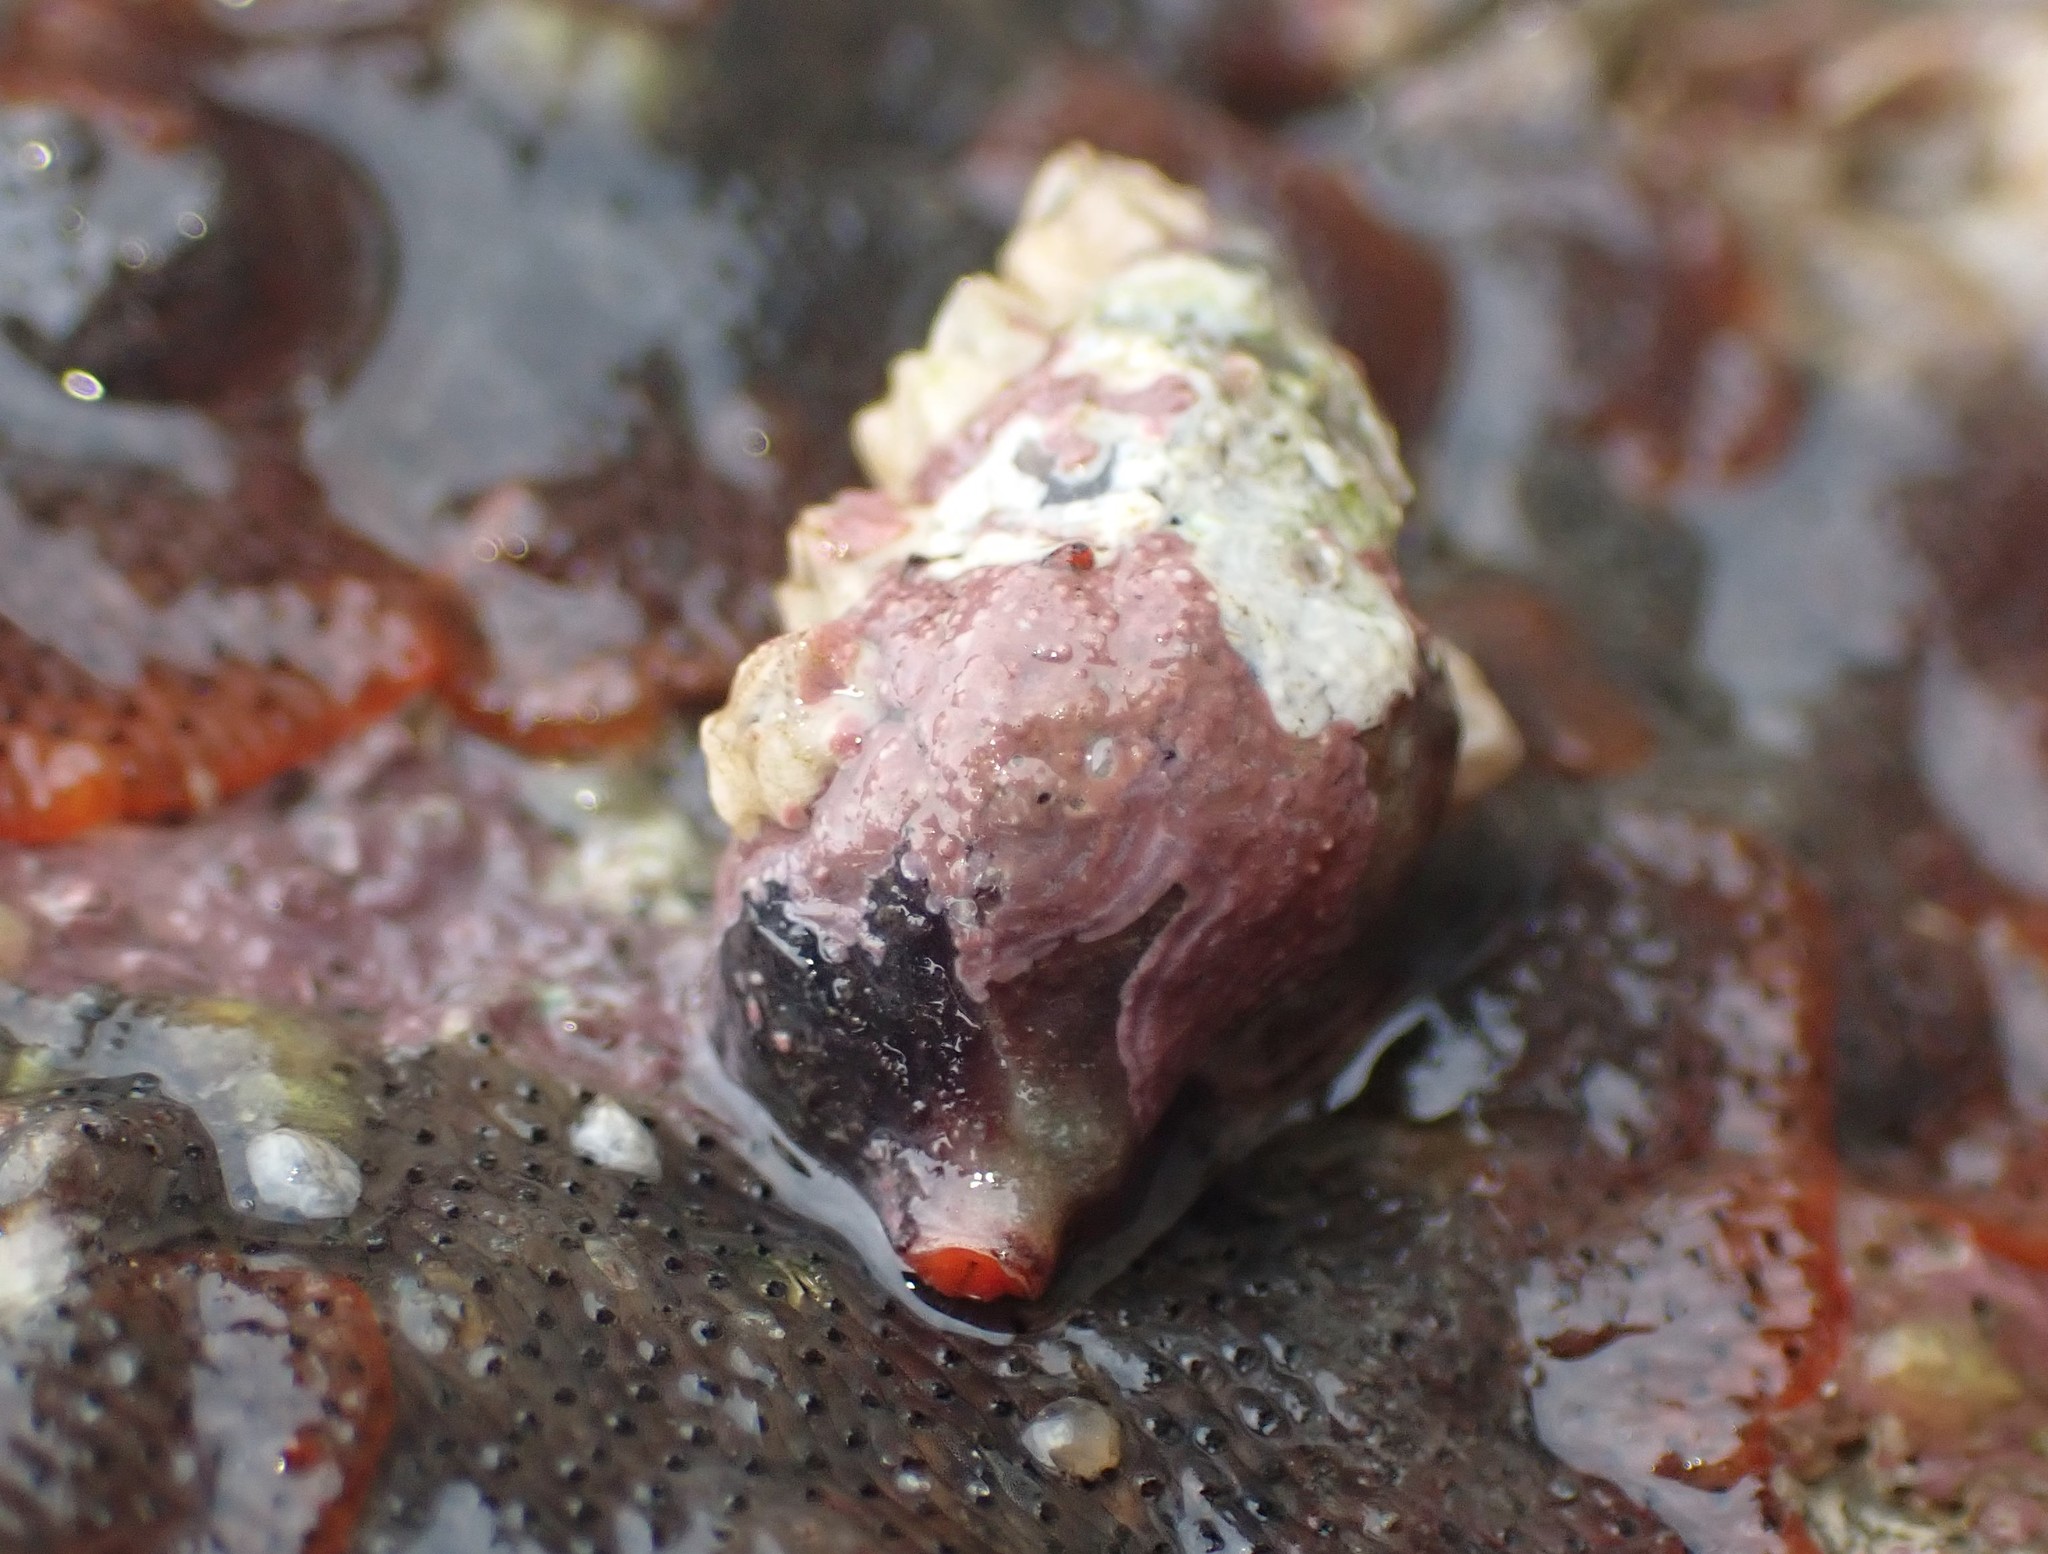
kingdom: Animalia
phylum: Mollusca
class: Gastropoda
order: Neogastropoda
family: Fasciolariidae
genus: Taron
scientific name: Taron dubius
